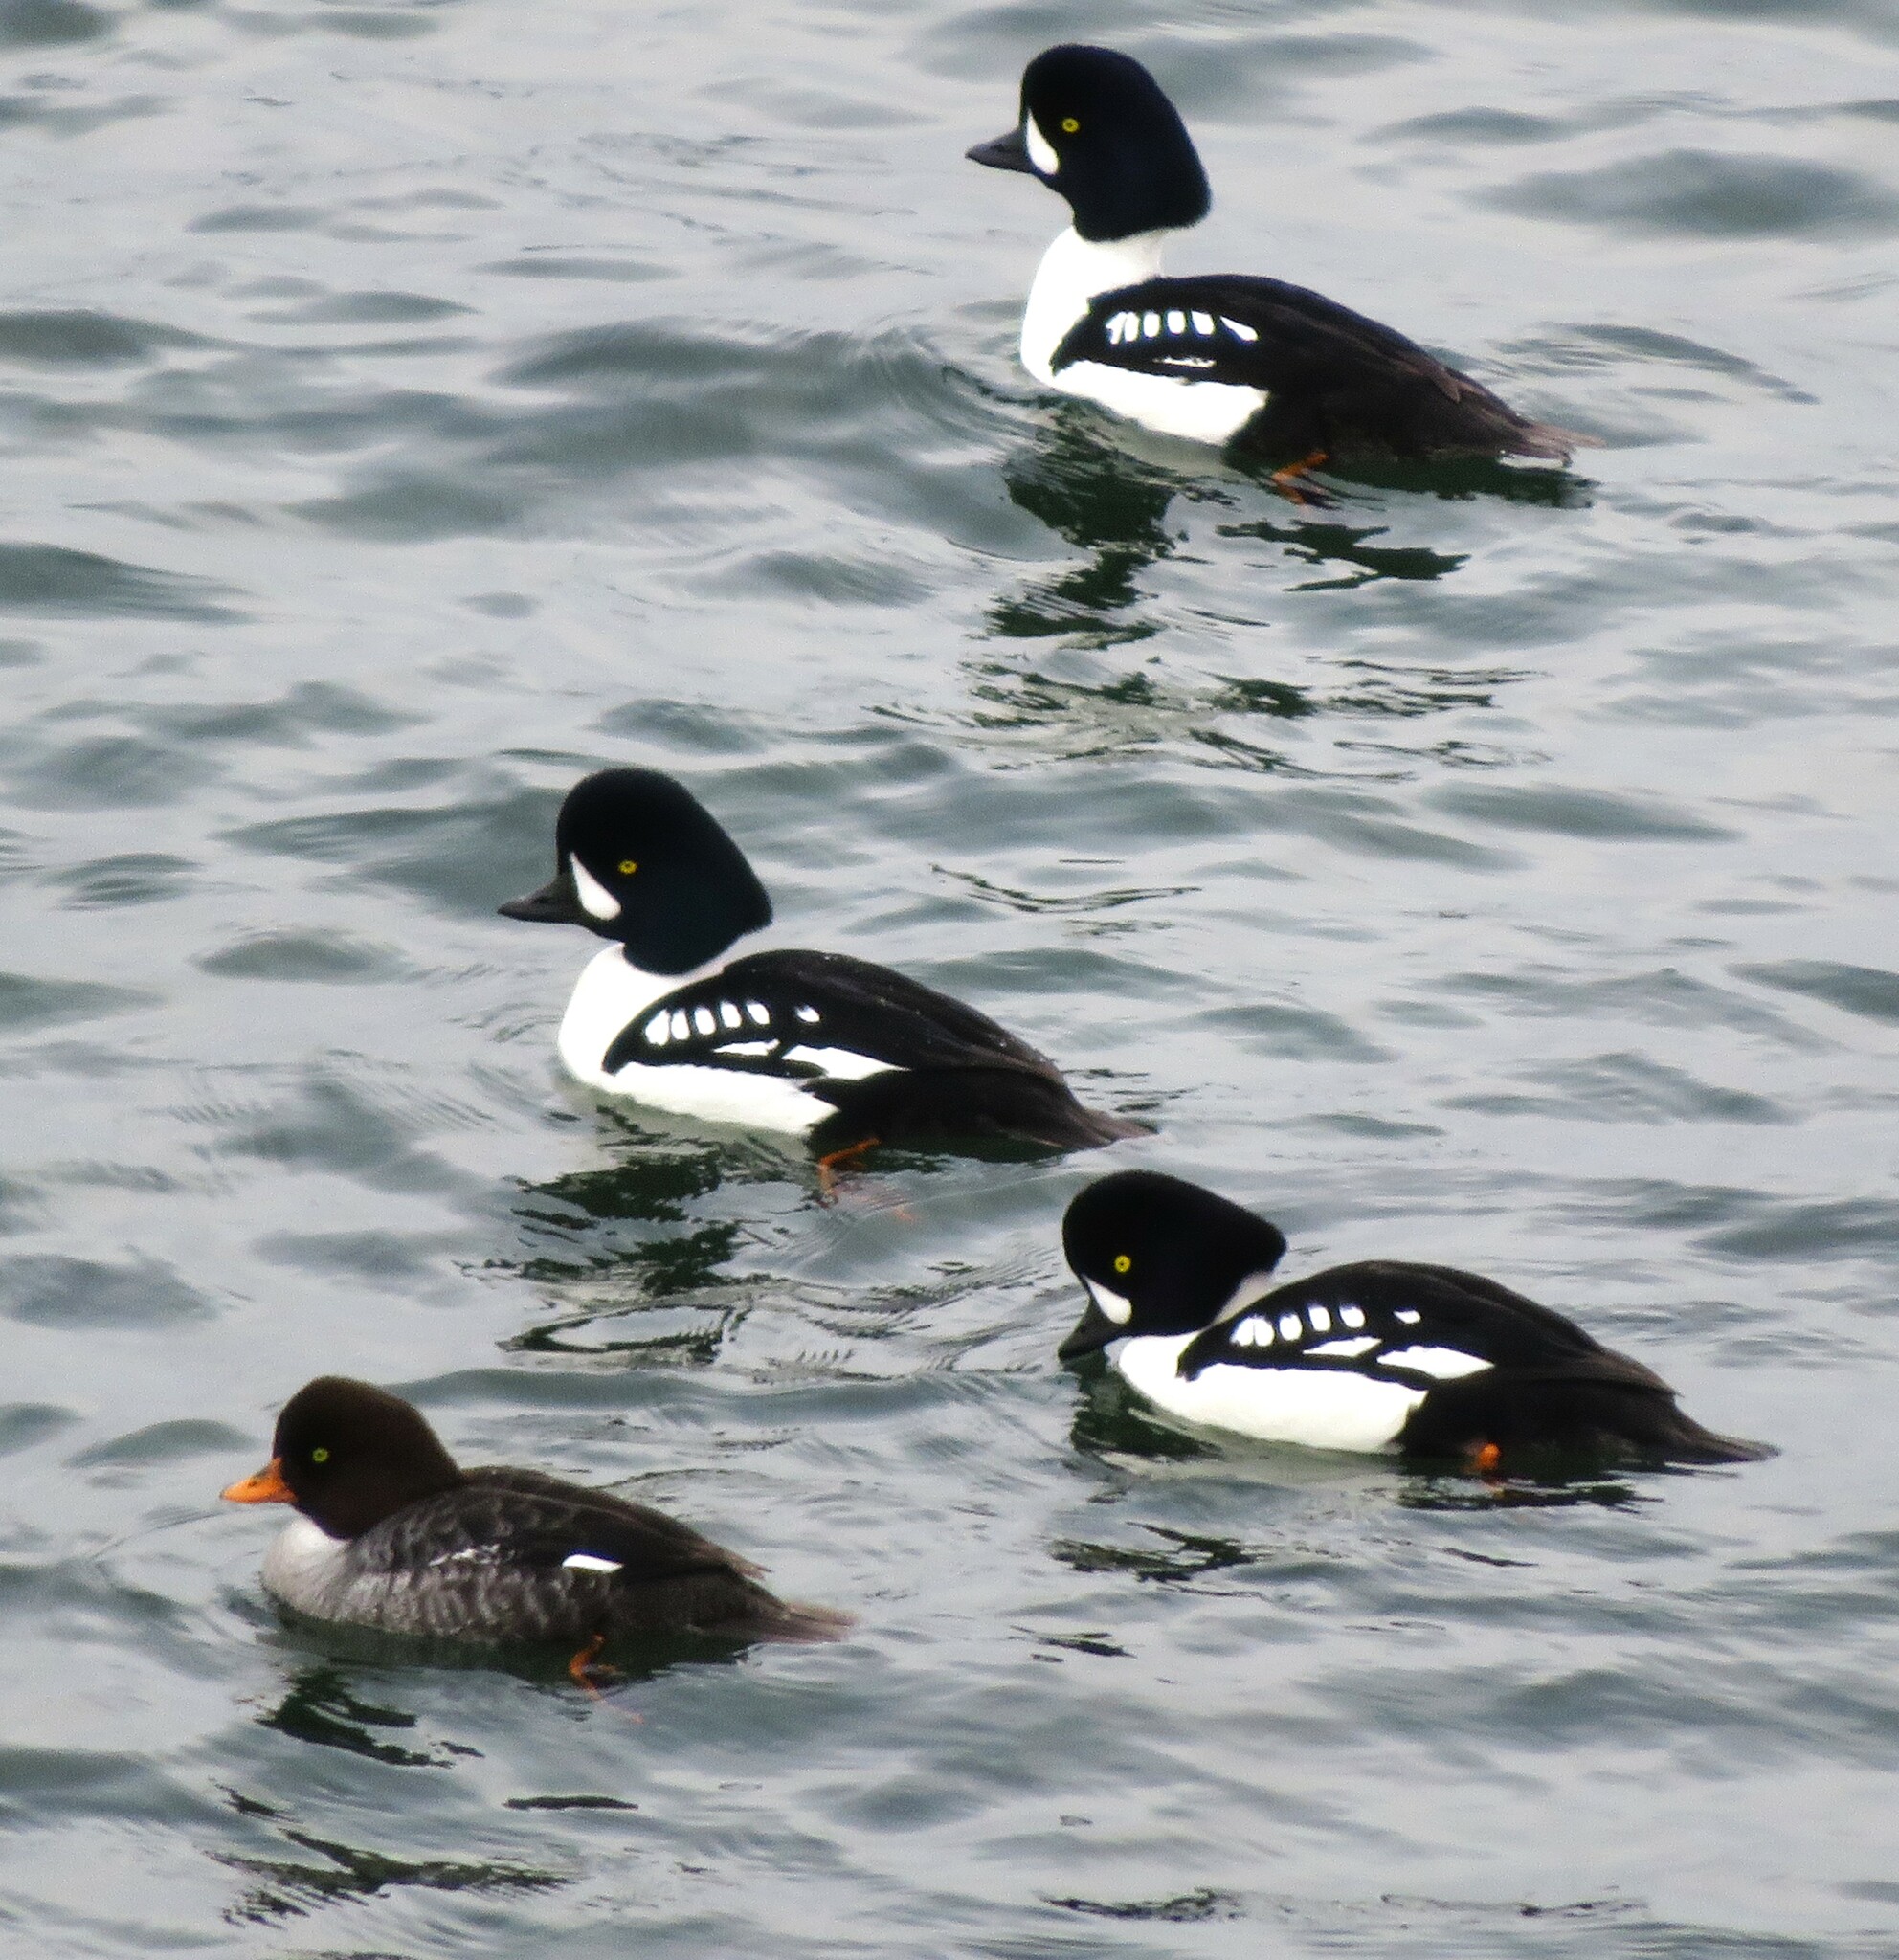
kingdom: Animalia
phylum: Chordata
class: Aves
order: Anseriformes
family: Anatidae
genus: Bucephala
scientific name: Bucephala islandica
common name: Barrow's goldeneye
